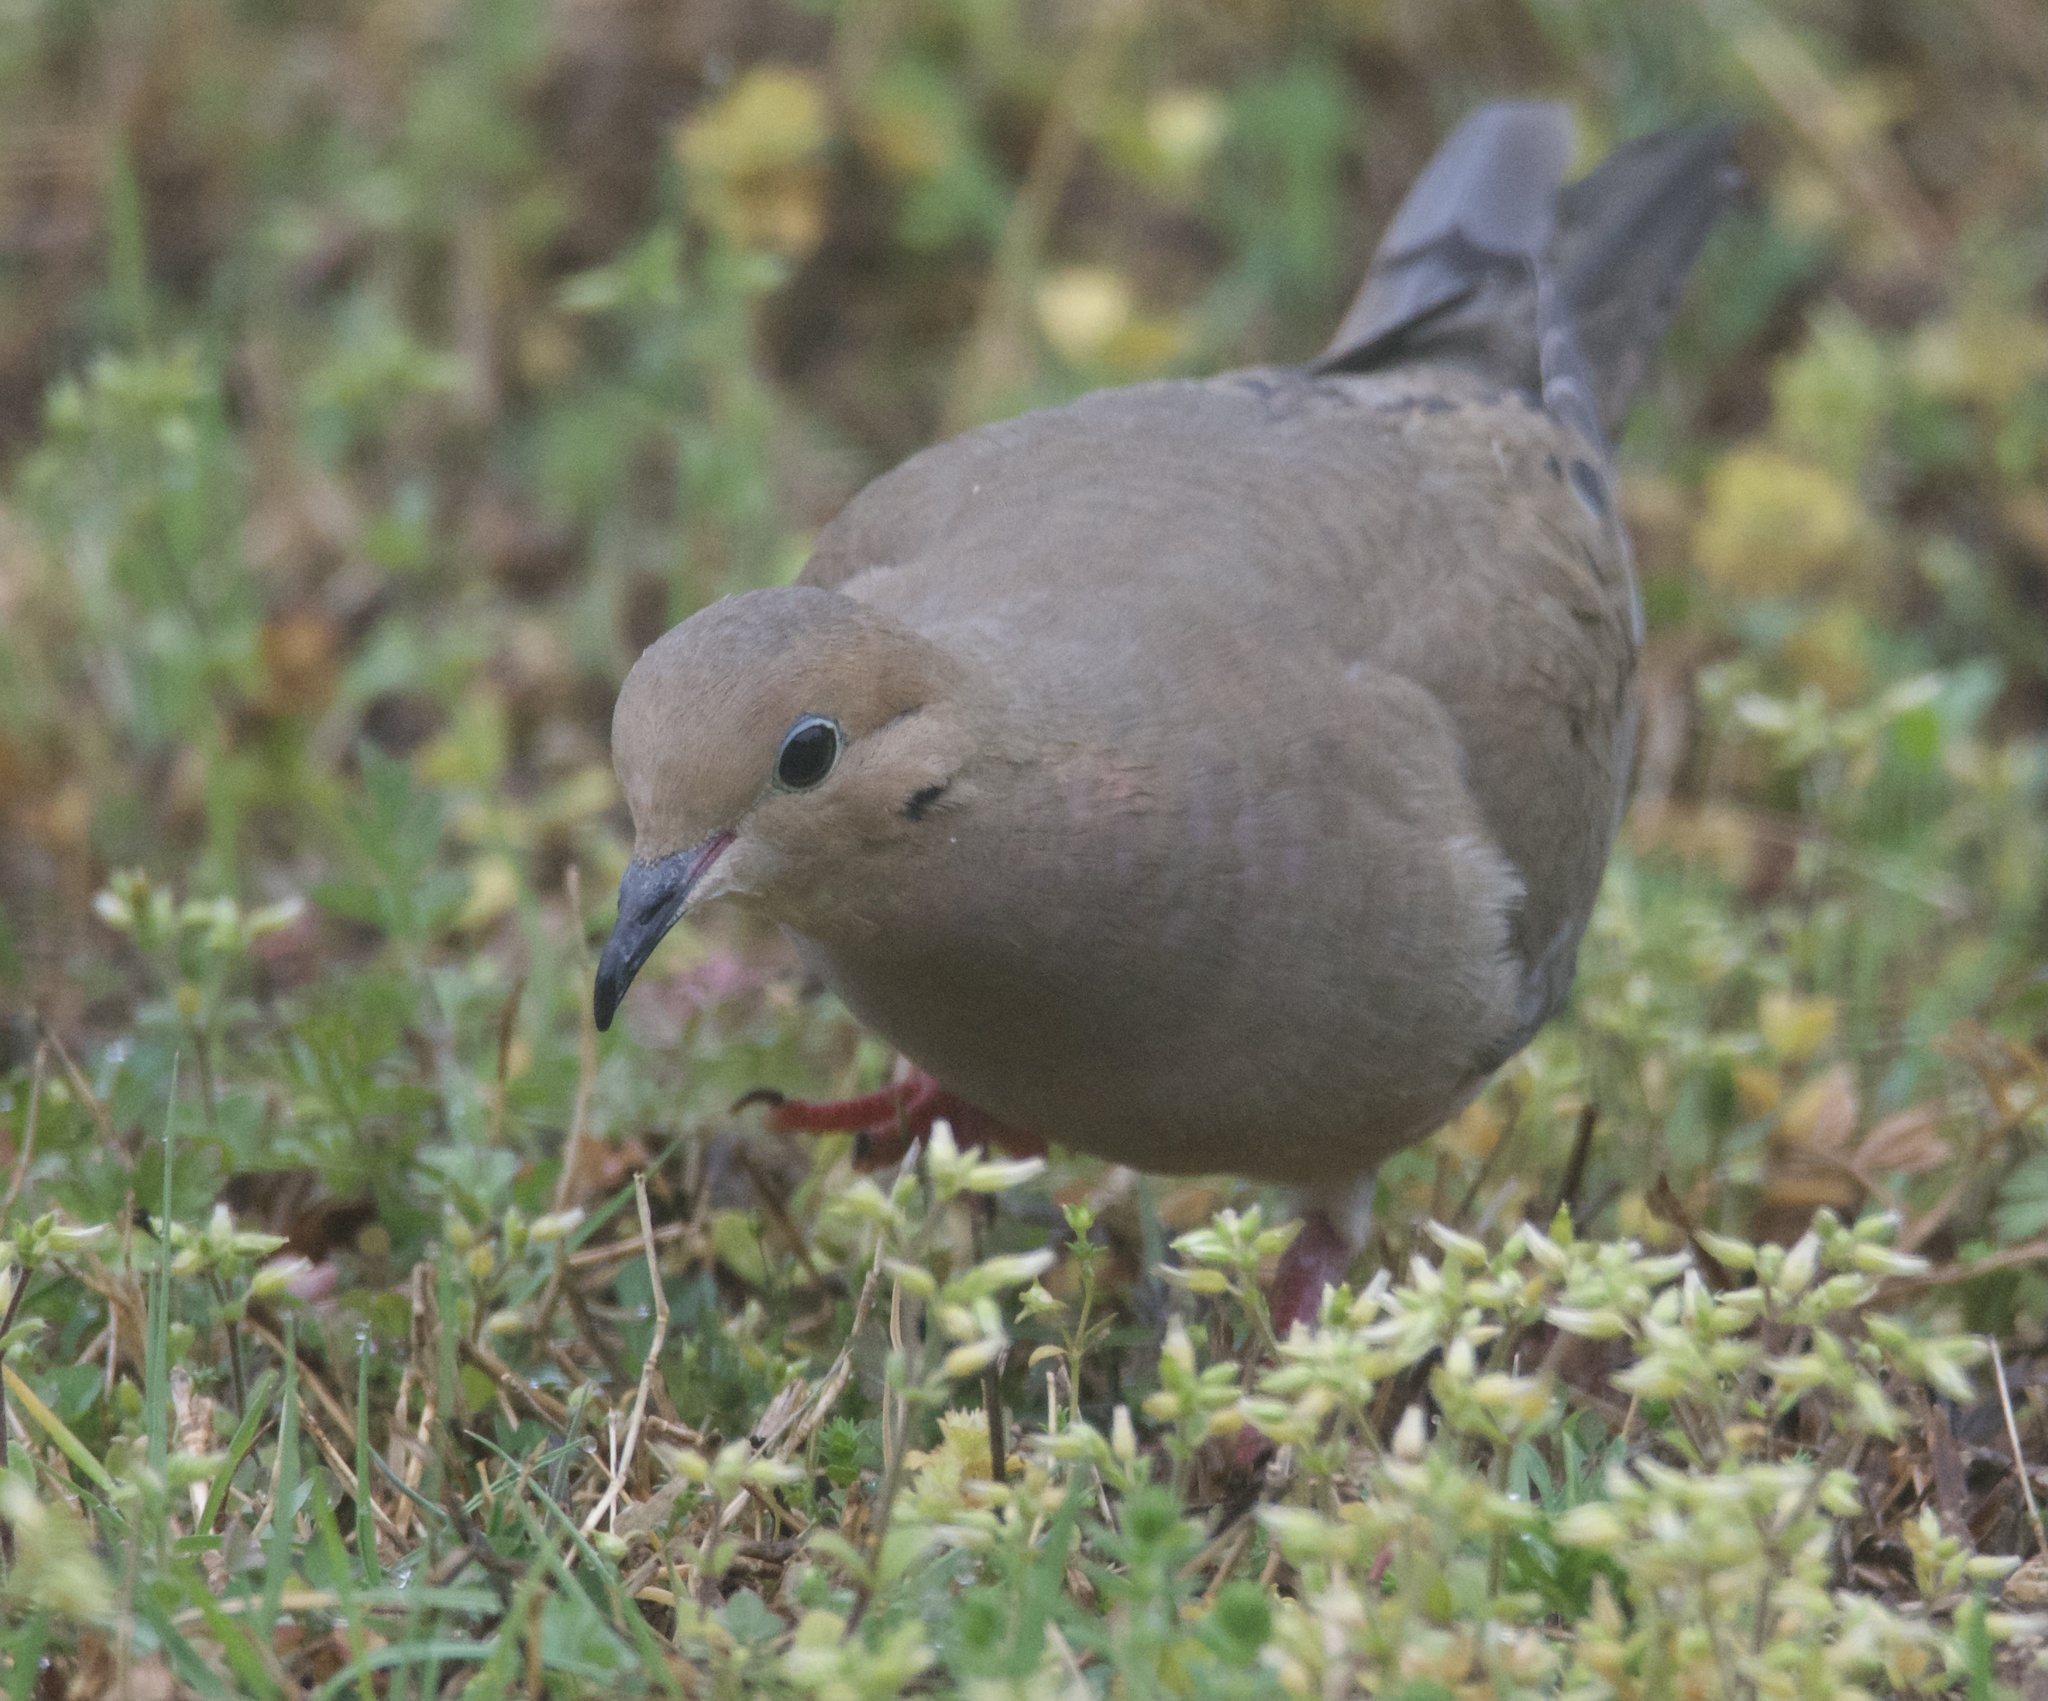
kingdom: Animalia
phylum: Chordata
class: Aves
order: Columbiformes
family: Columbidae
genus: Zenaida
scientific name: Zenaida macroura
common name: Mourning dove
